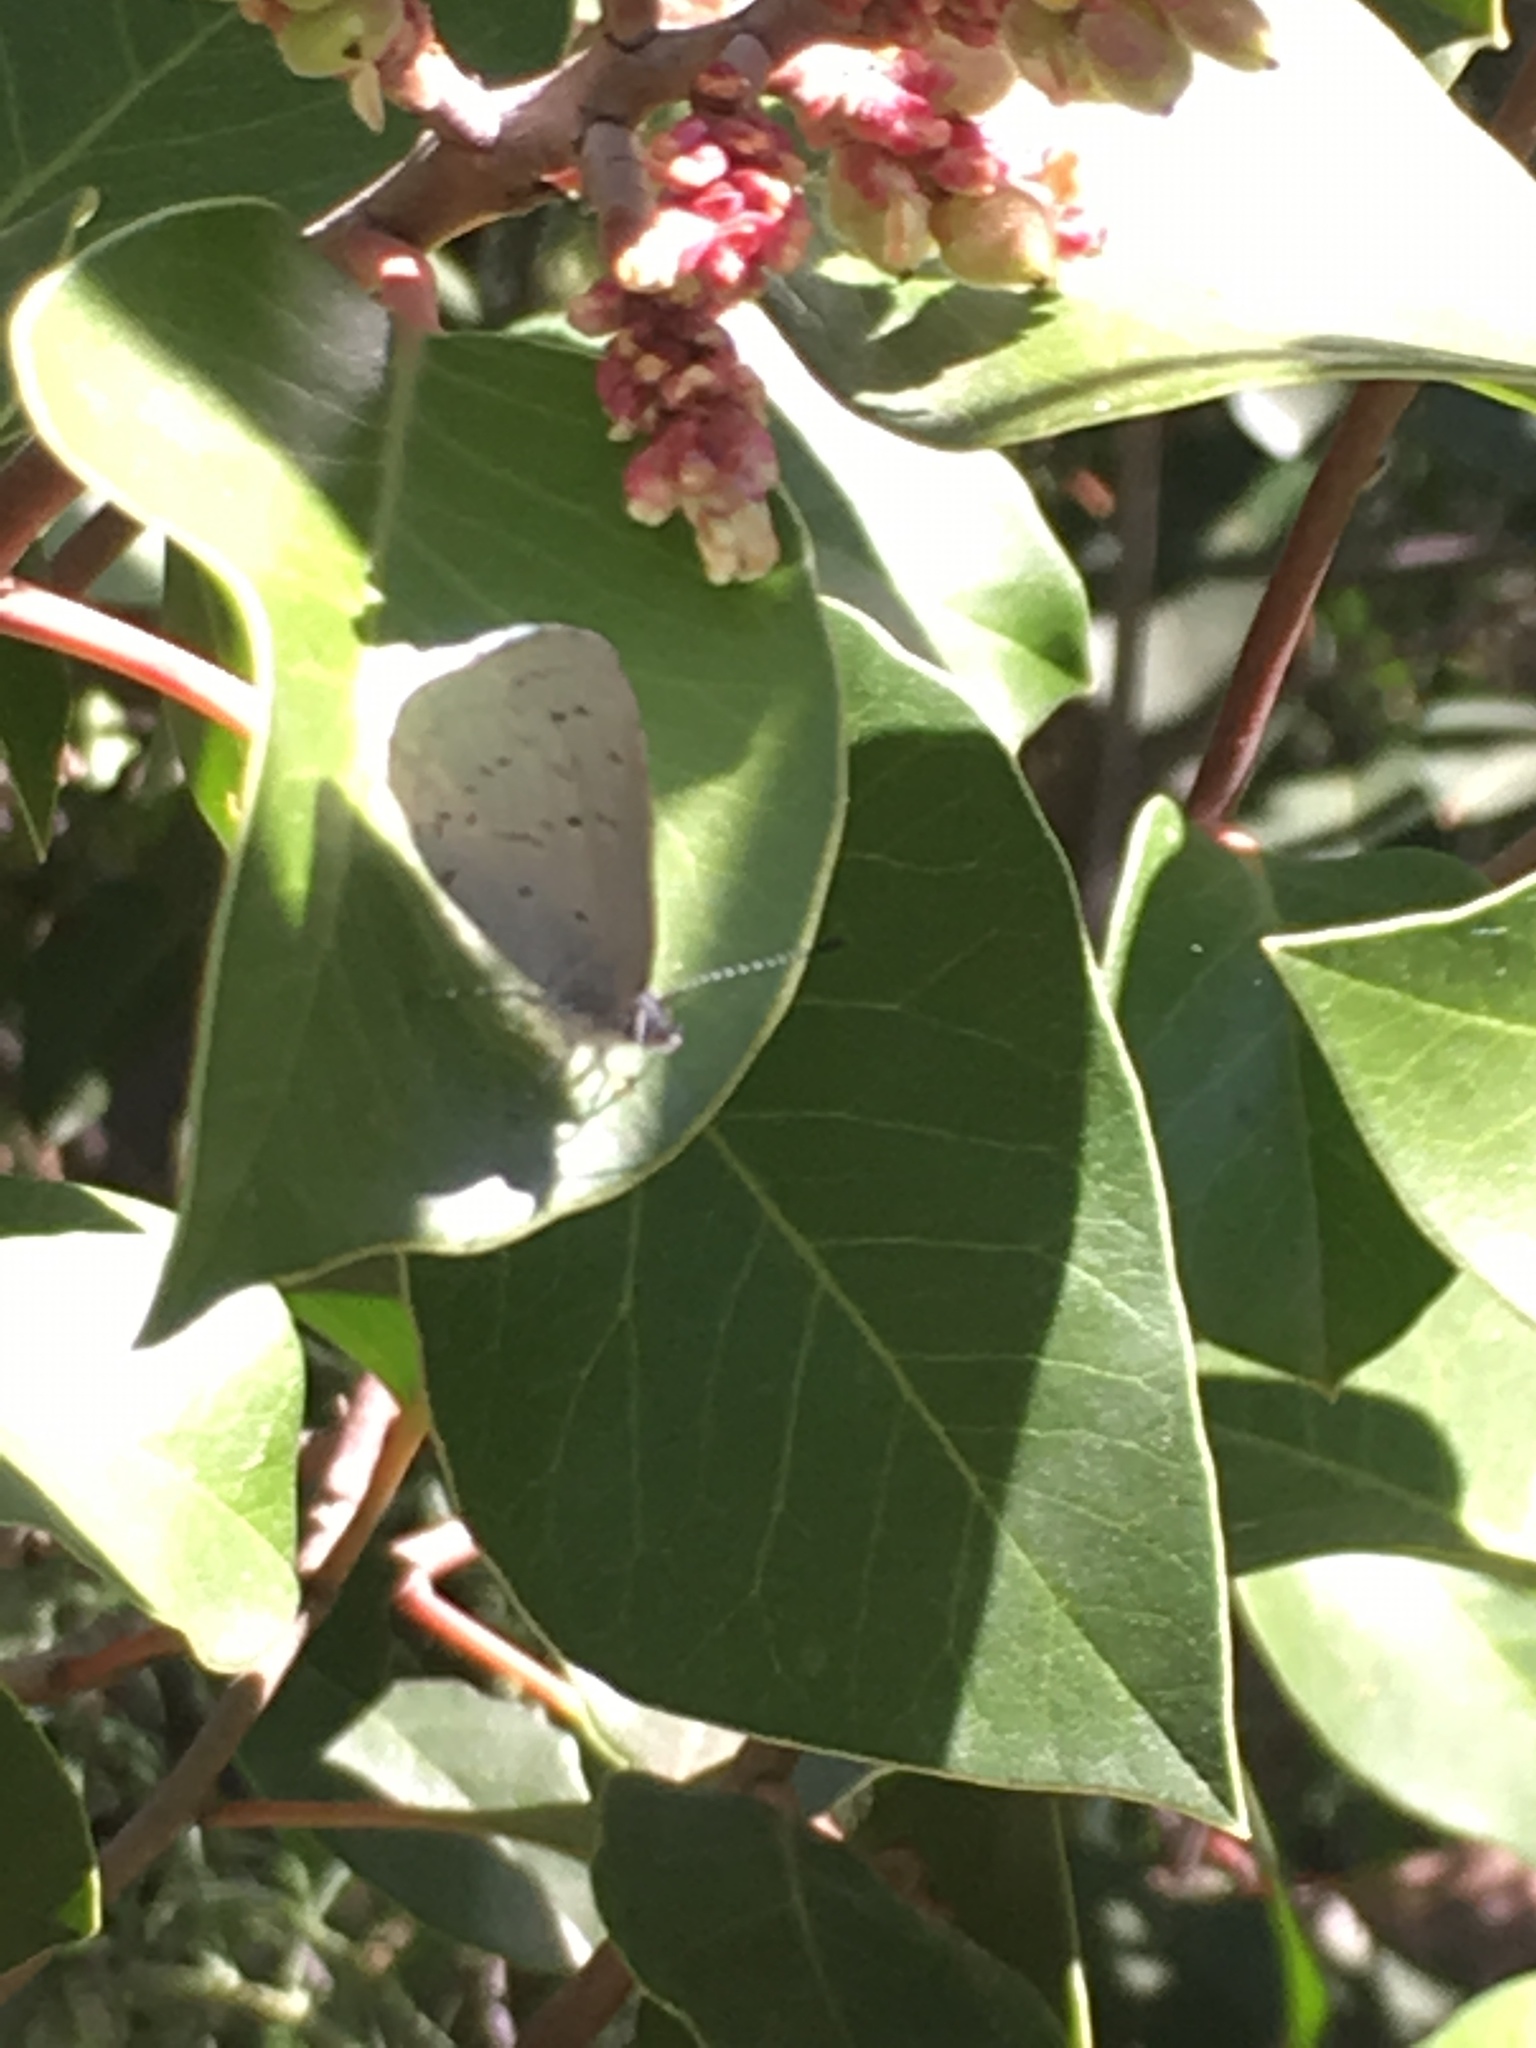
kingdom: Animalia
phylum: Arthropoda
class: Insecta
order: Lepidoptera
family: Lycaenidae
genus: Celastrina
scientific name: Celastrina ladon
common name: Spring azure
